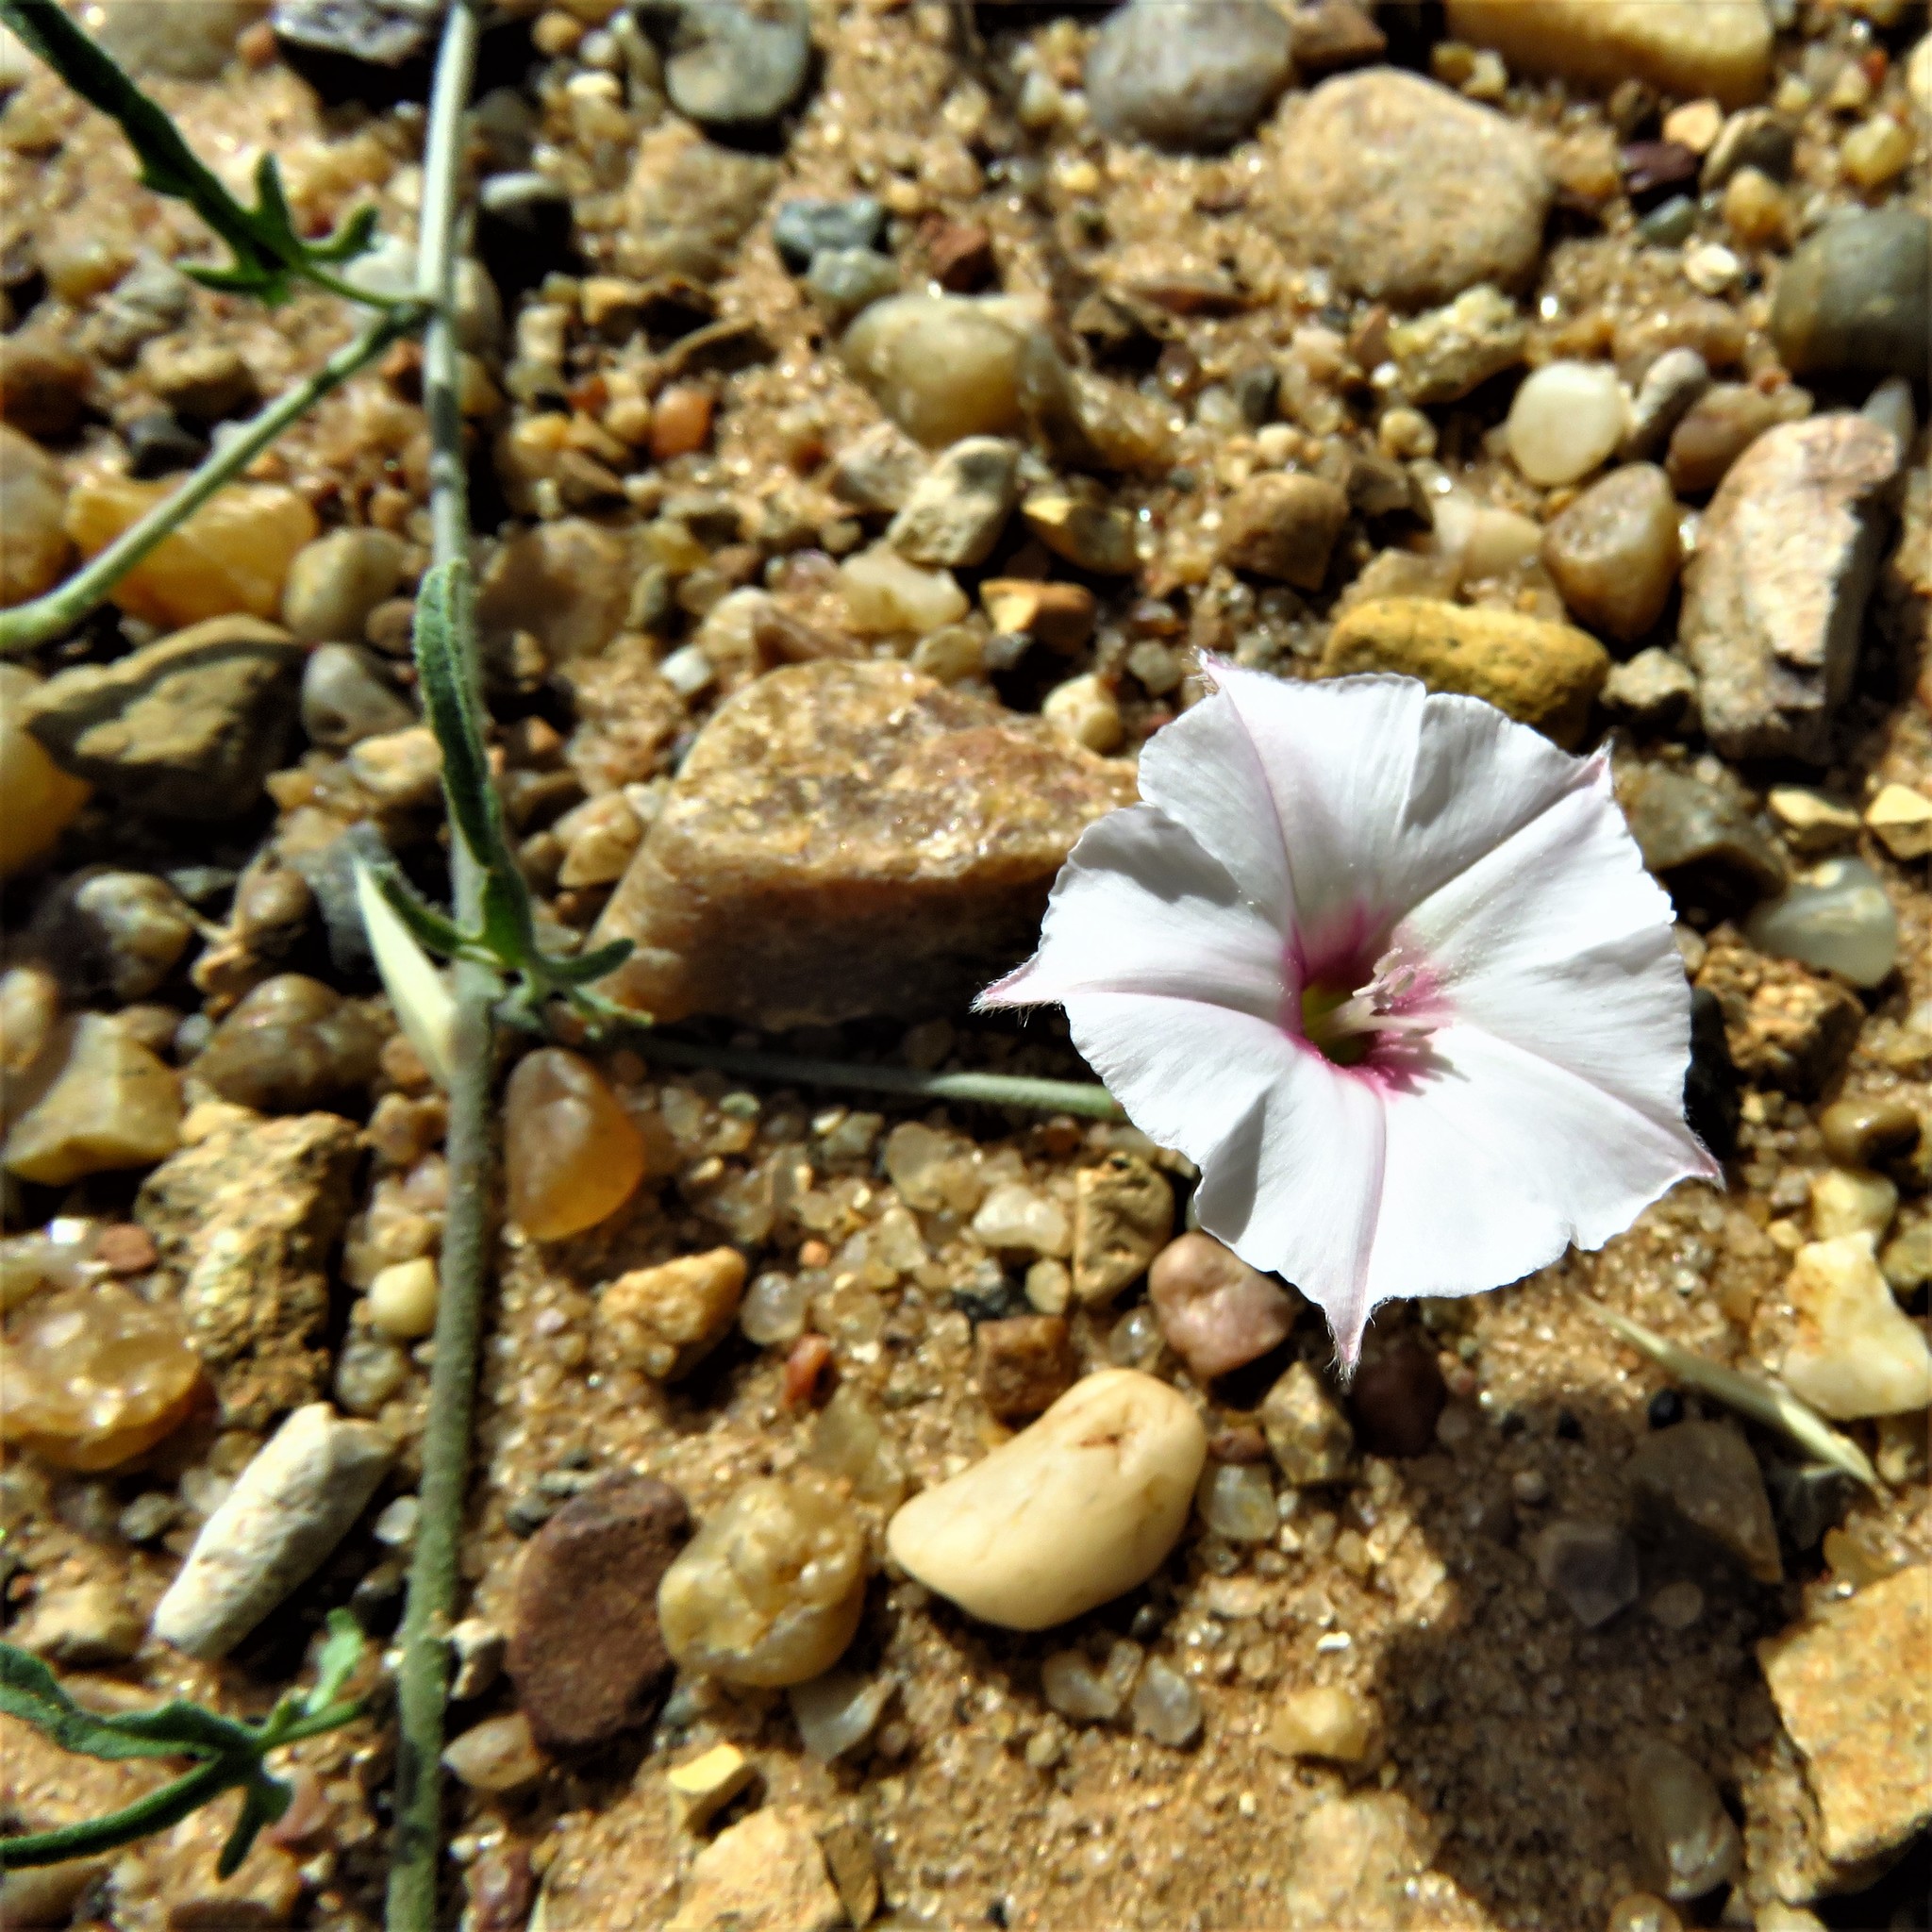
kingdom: Plantae
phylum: Tracheophyta
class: Magnoliopsida
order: Solanales
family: Convolvulaceae
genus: Convolvulus
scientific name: Convolvulus equitans
